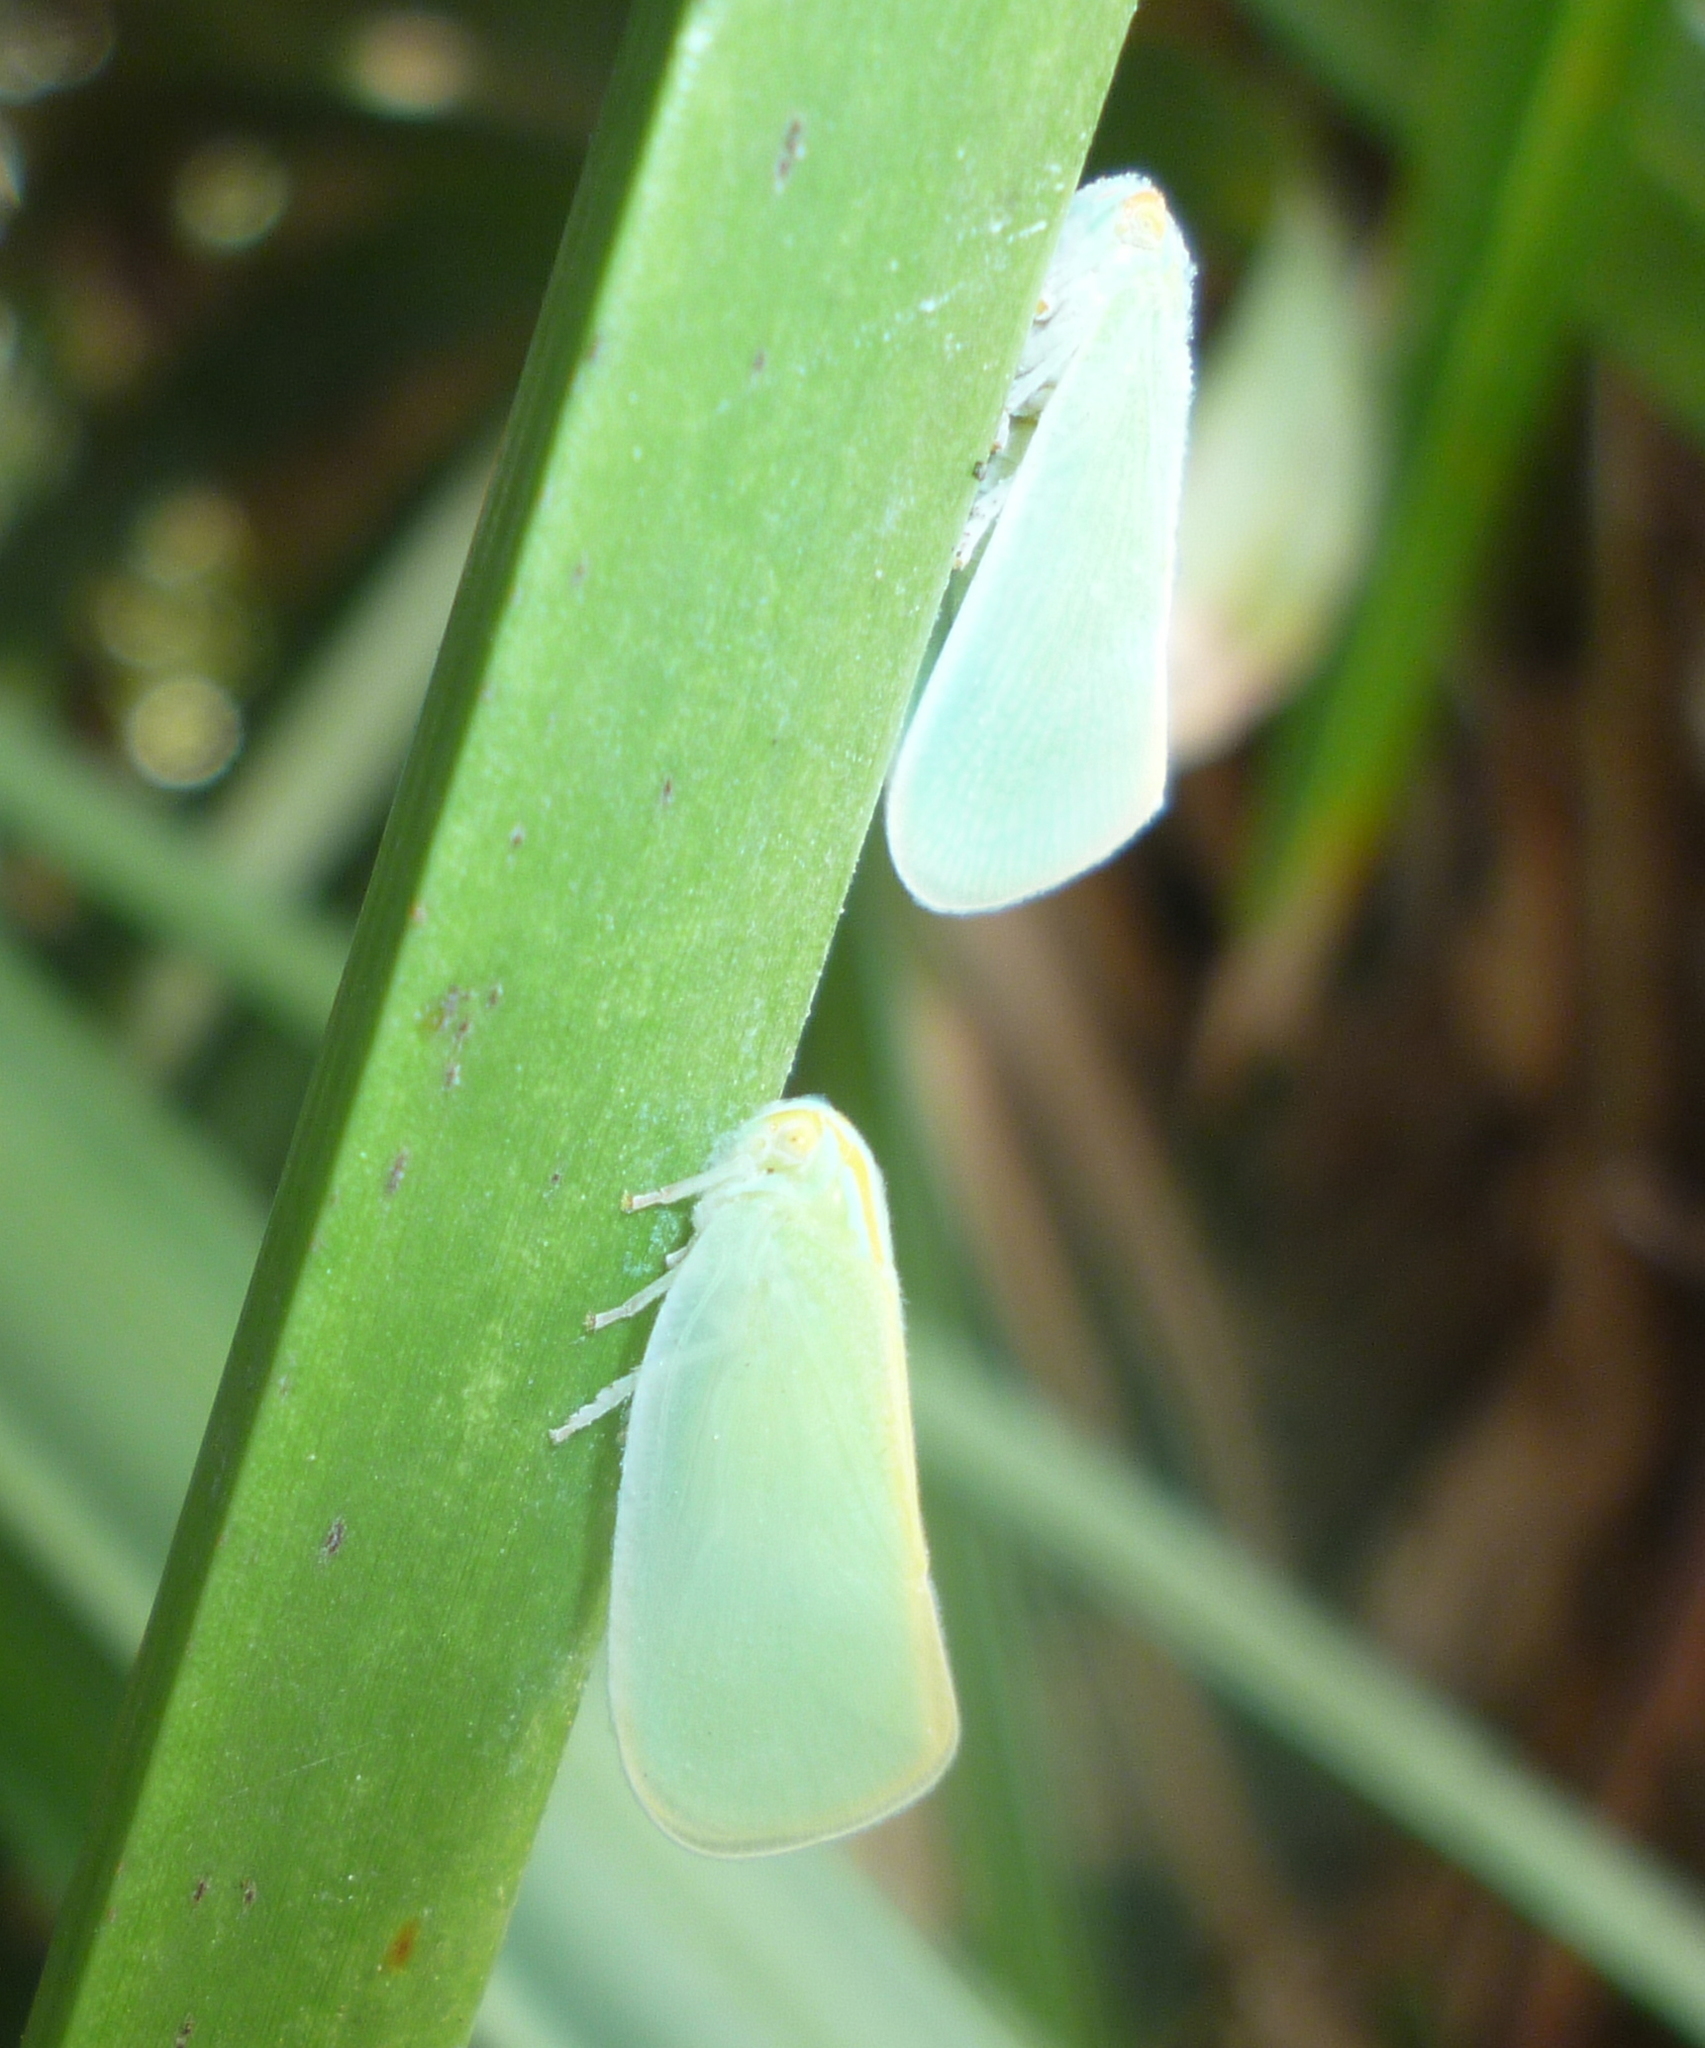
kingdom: Animalia
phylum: Arthropoda
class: Insecta
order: Hemiptera
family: Flatidae
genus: Ormenaria
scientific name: Ormenaria rufifascia
